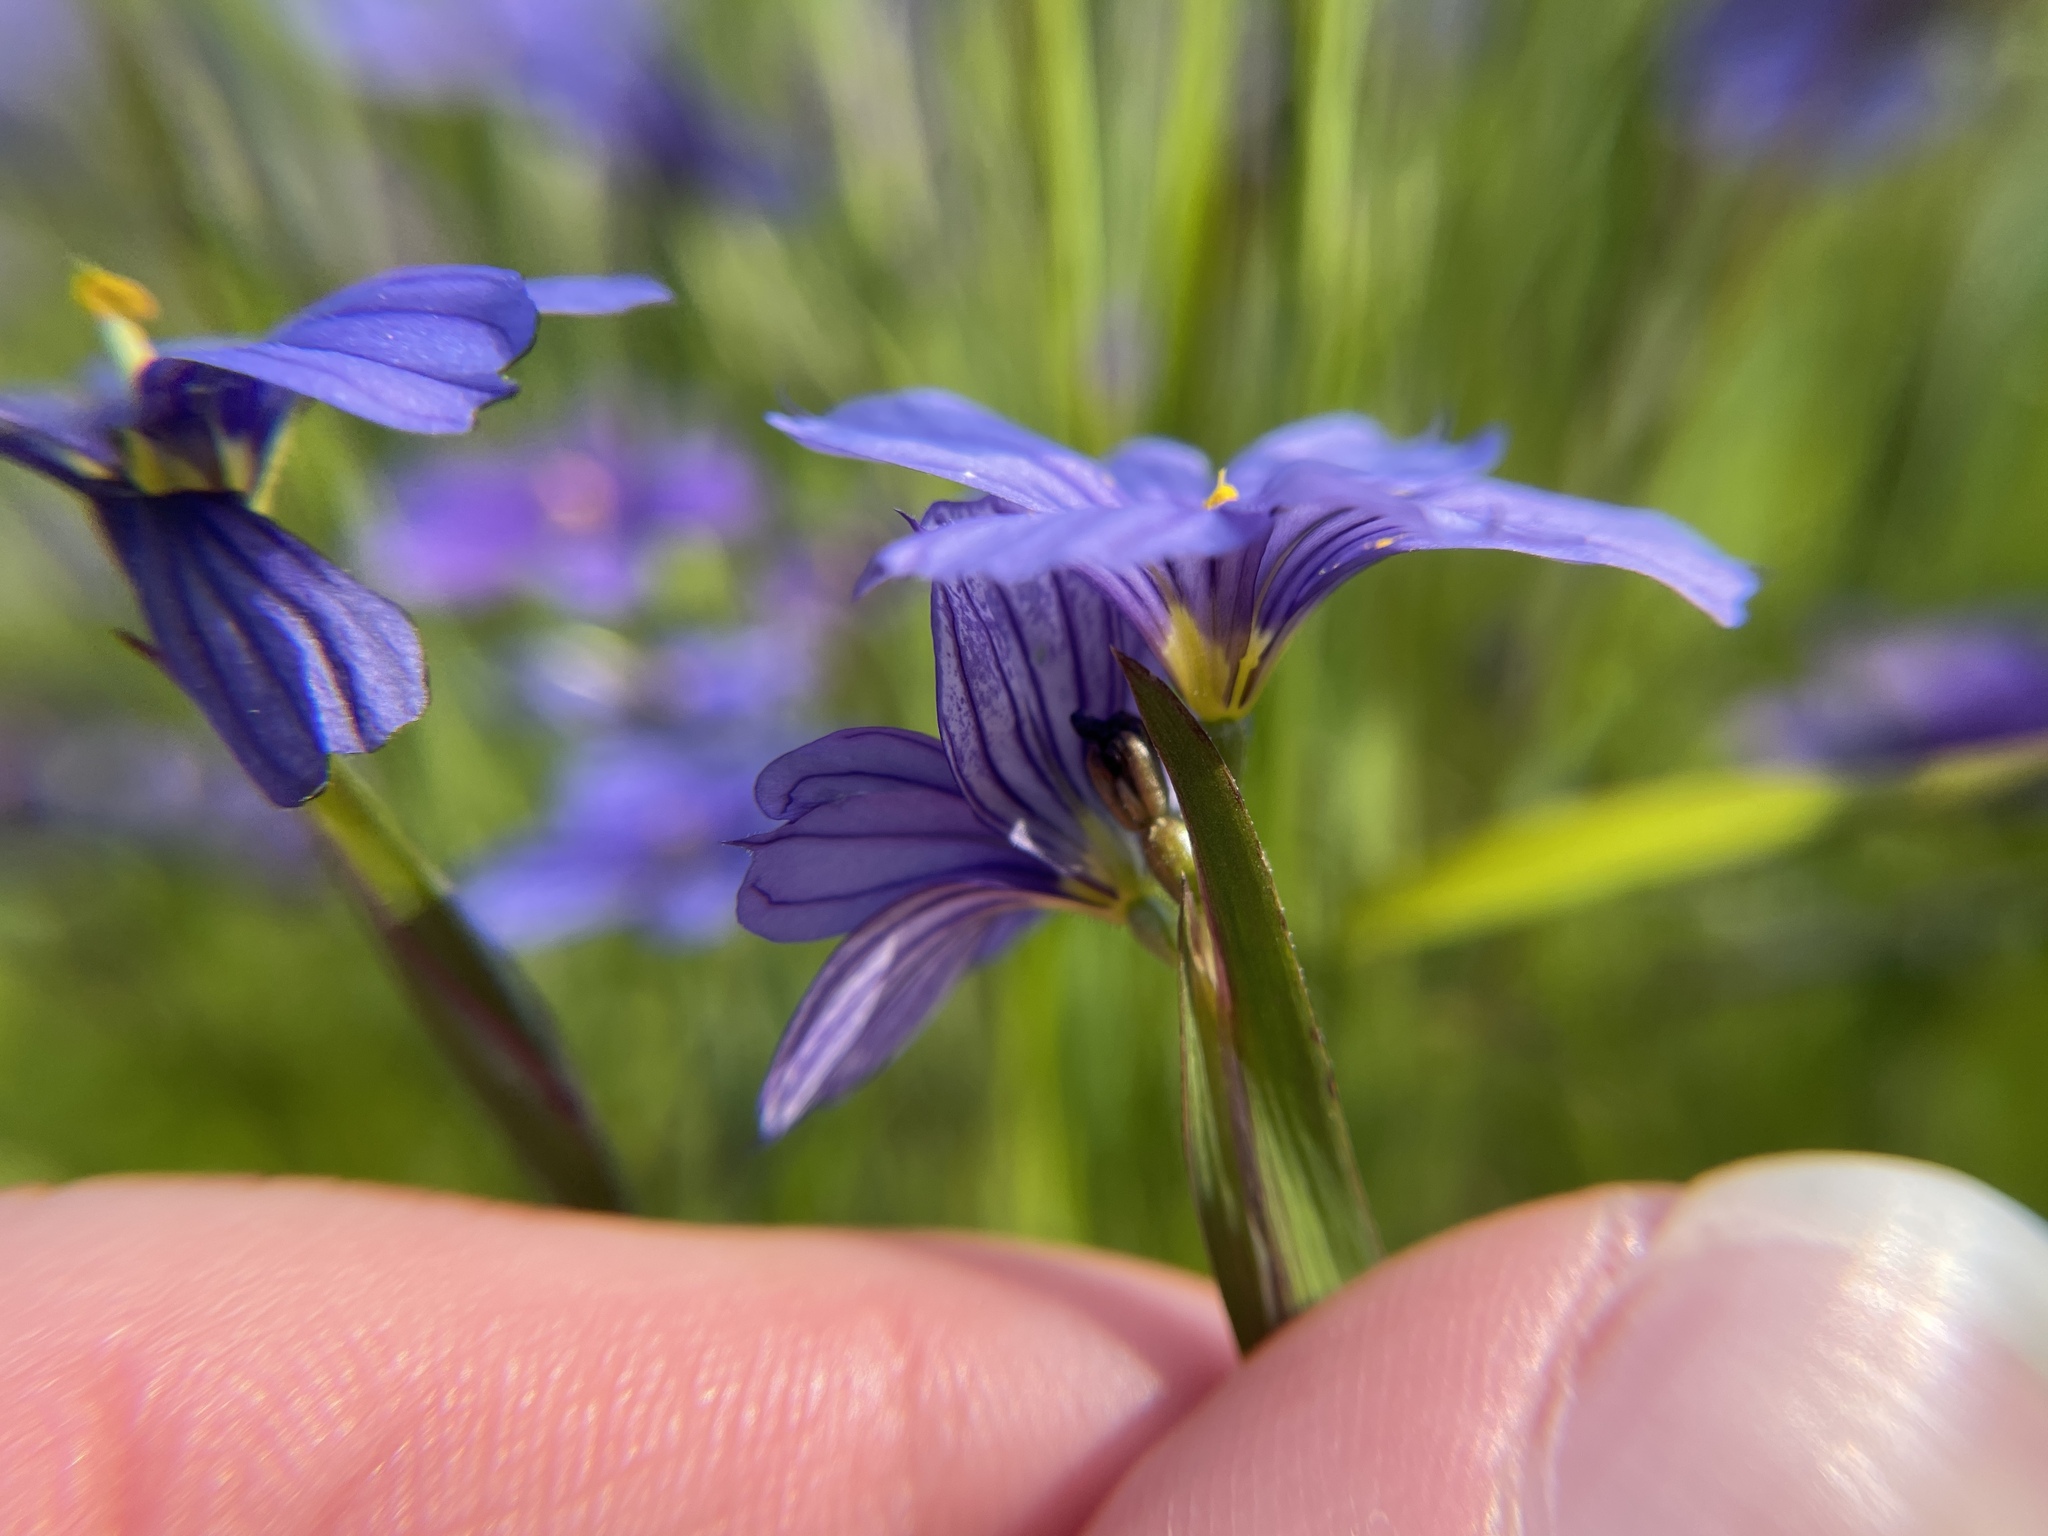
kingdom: Plantae
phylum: Tracheophyta
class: Liliopsida
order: Asparagales
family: Iridaceae
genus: Sisyrinchium
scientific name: Sisyrinchium bellum
